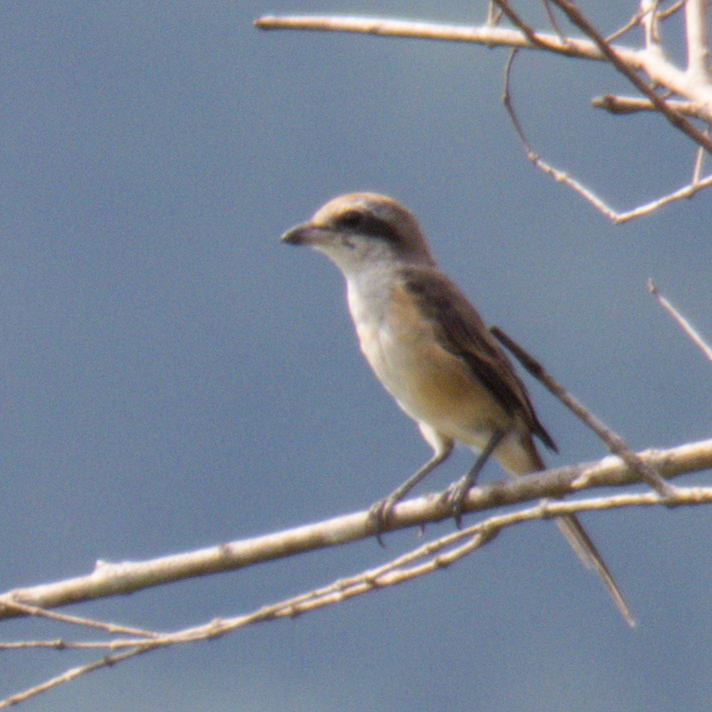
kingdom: Animalia
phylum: Chordata
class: Aves
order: Passeriformes
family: Laniidae
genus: Lanius
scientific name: Lanius cristatus
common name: Brown shrike
